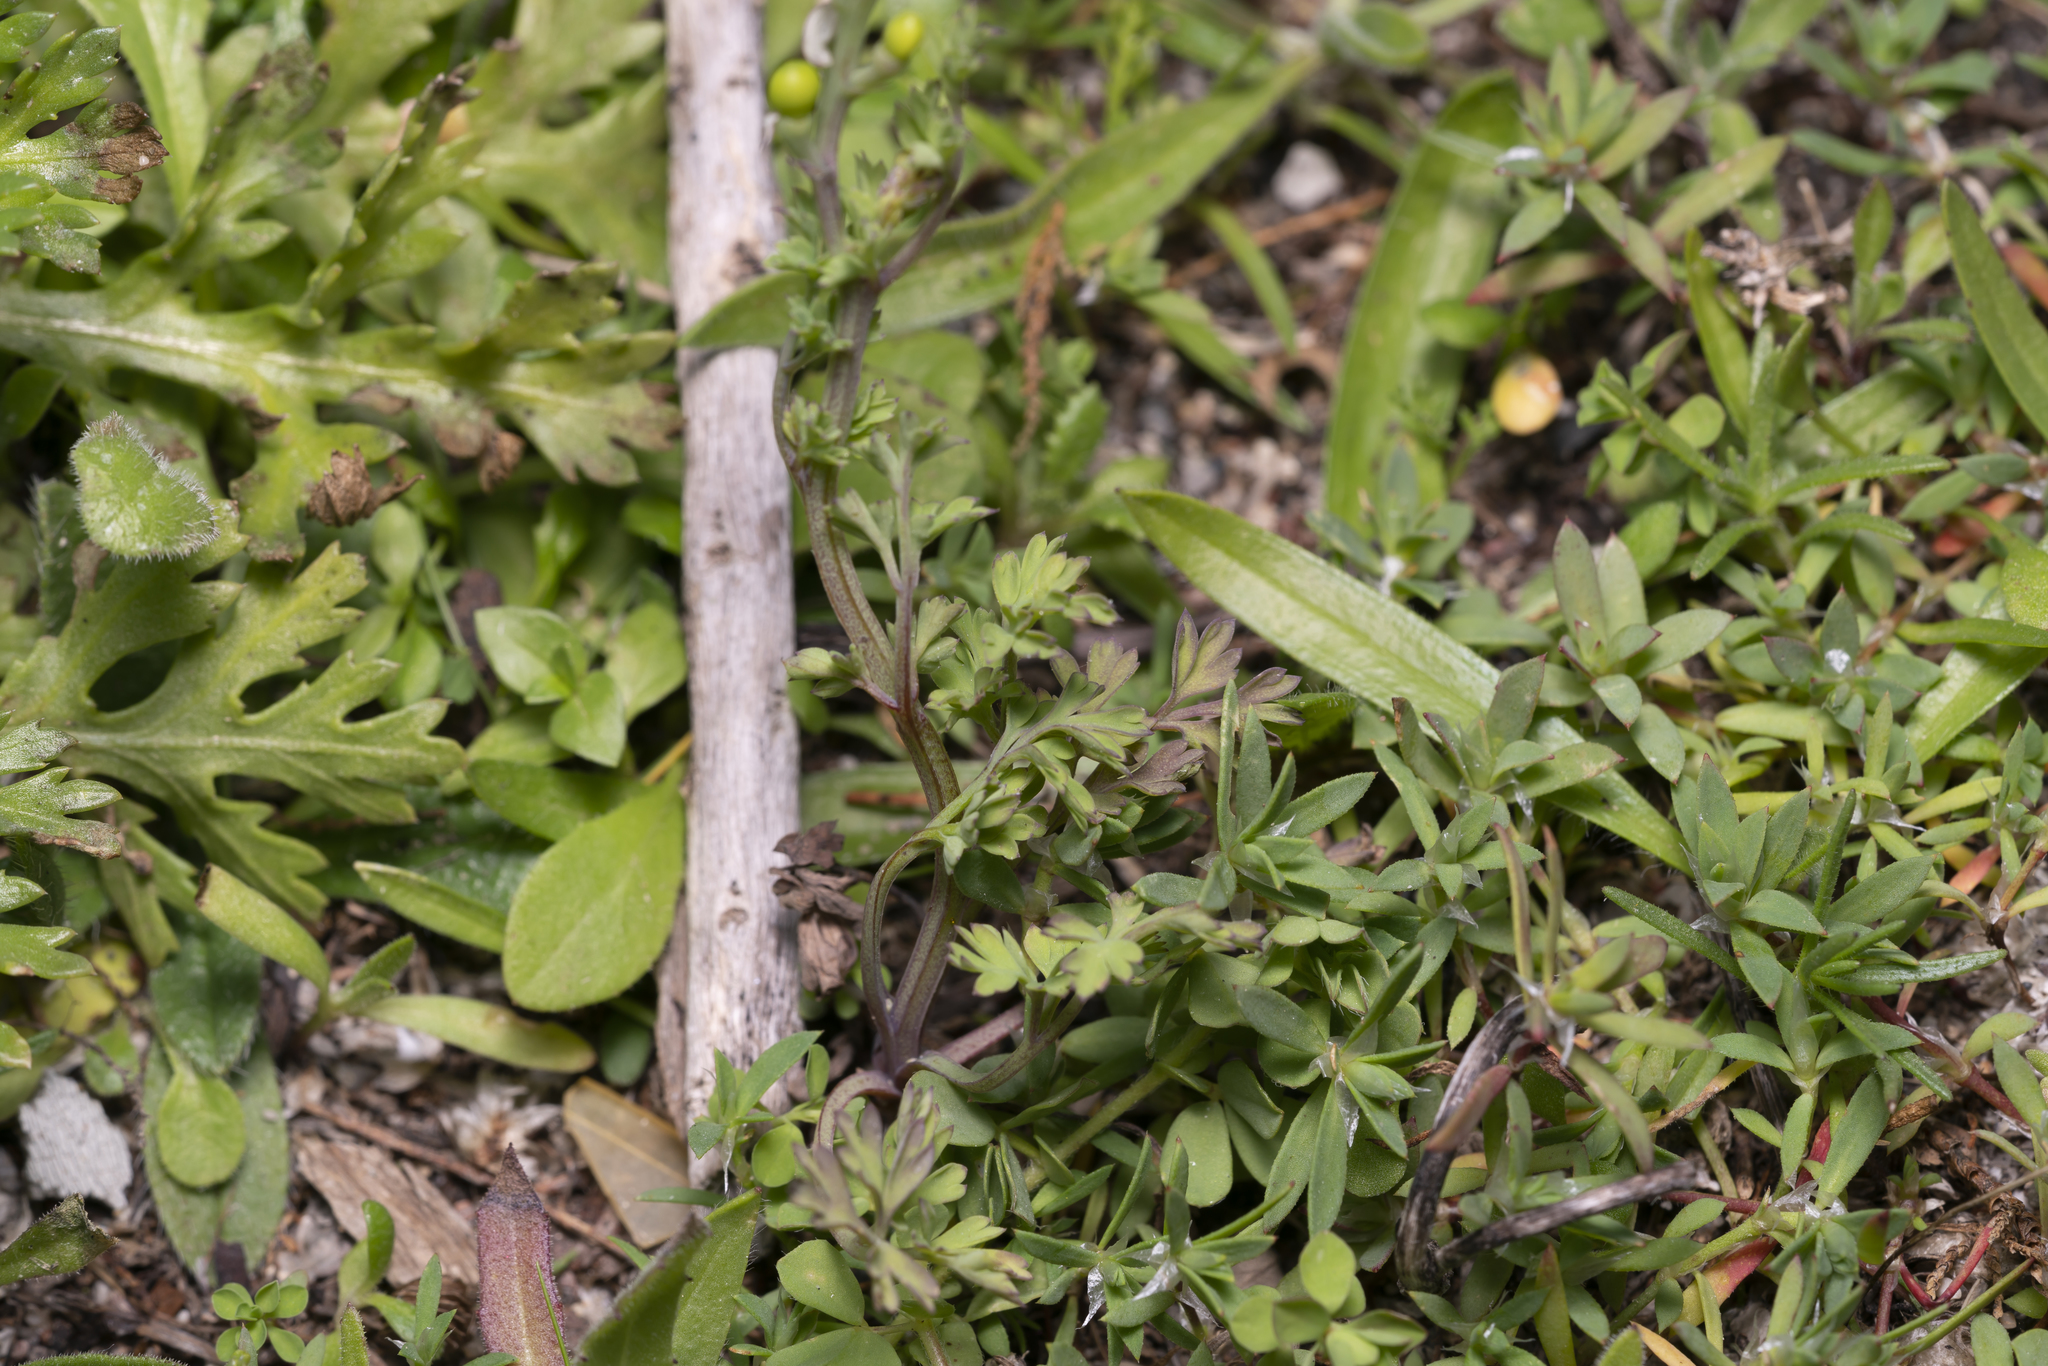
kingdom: Plantae
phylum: Tracheophyta
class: Magnoliopsida
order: Ranunculales
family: Papaveraceae
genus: Fumaria
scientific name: Fumaria judaica
